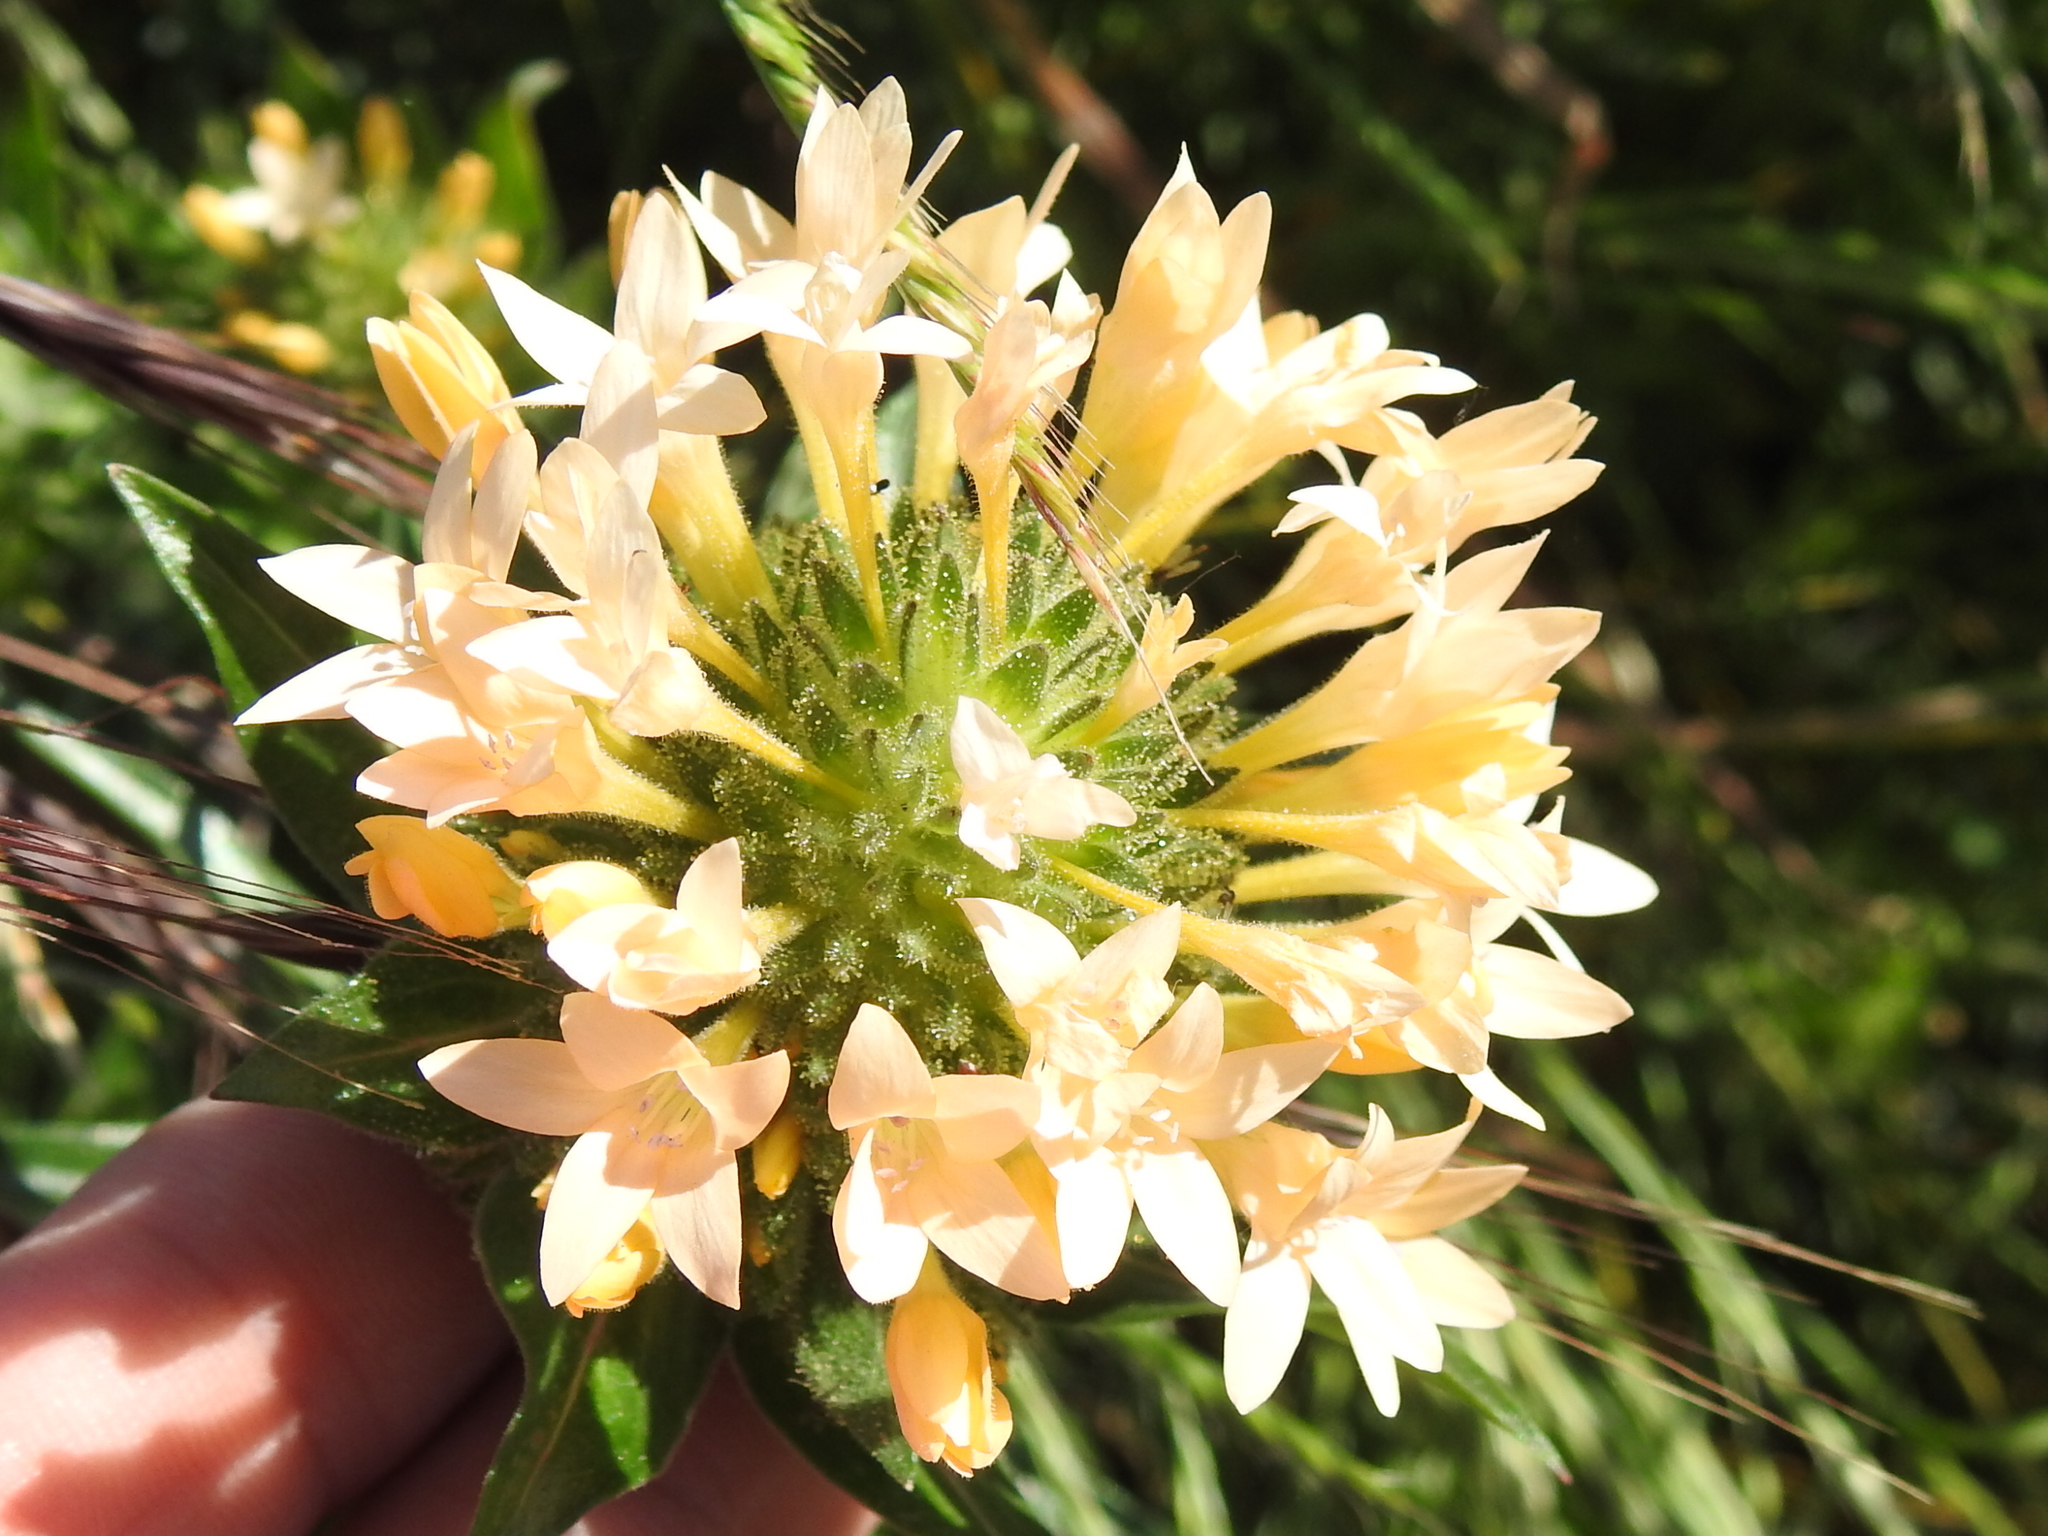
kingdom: Plantae
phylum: Tracheophyta
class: Magnoliopsida
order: Ericales
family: Polemoniaceae
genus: Collomia
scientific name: Collomia grandiflora
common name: California strawflower
